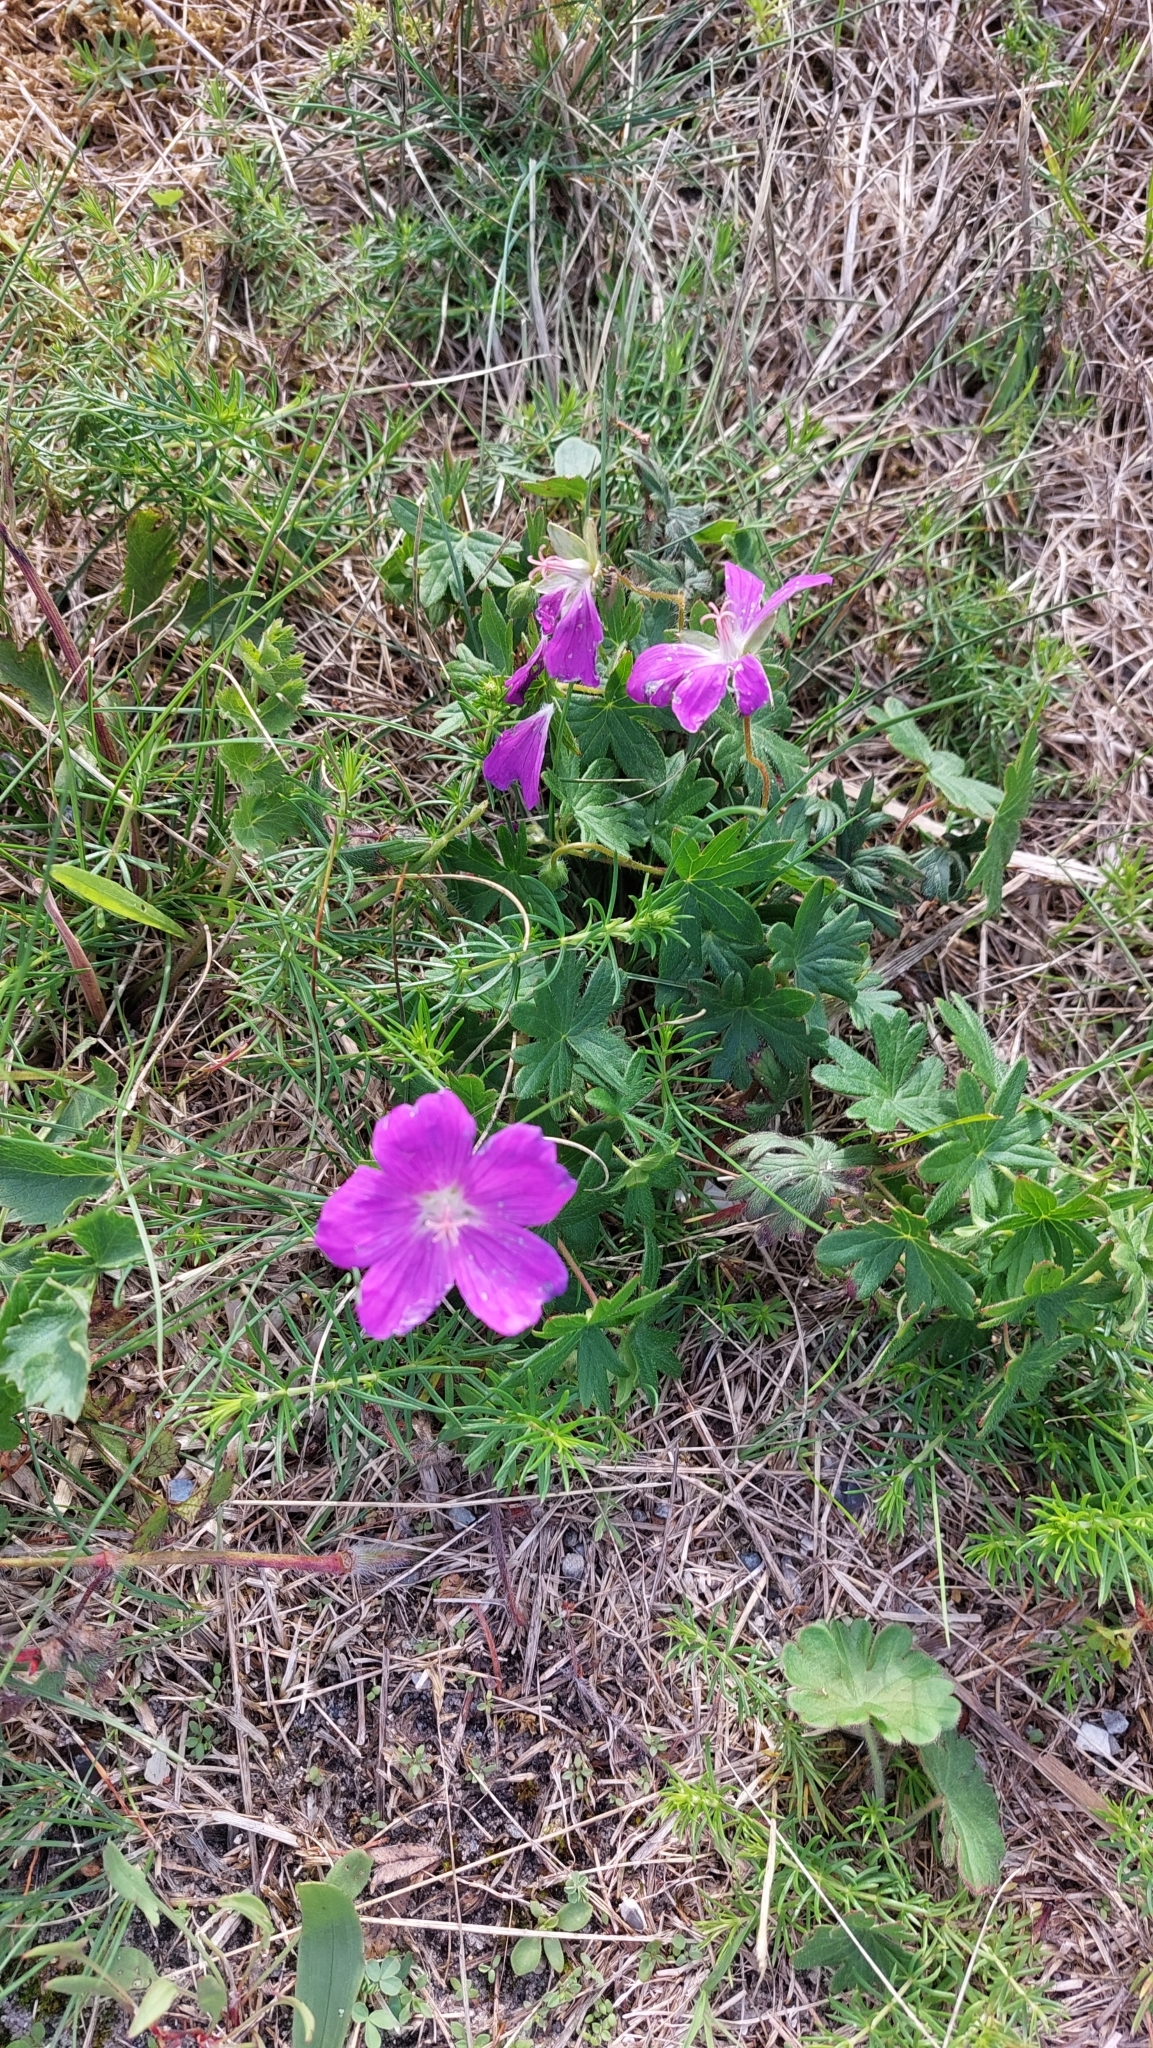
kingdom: Plantae
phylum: Tracheophyta
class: Magnoliopsida
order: Geraniales
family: Geraniaceae
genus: Geranium
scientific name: Geranium sanguineum
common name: Bloody crane's-bill
